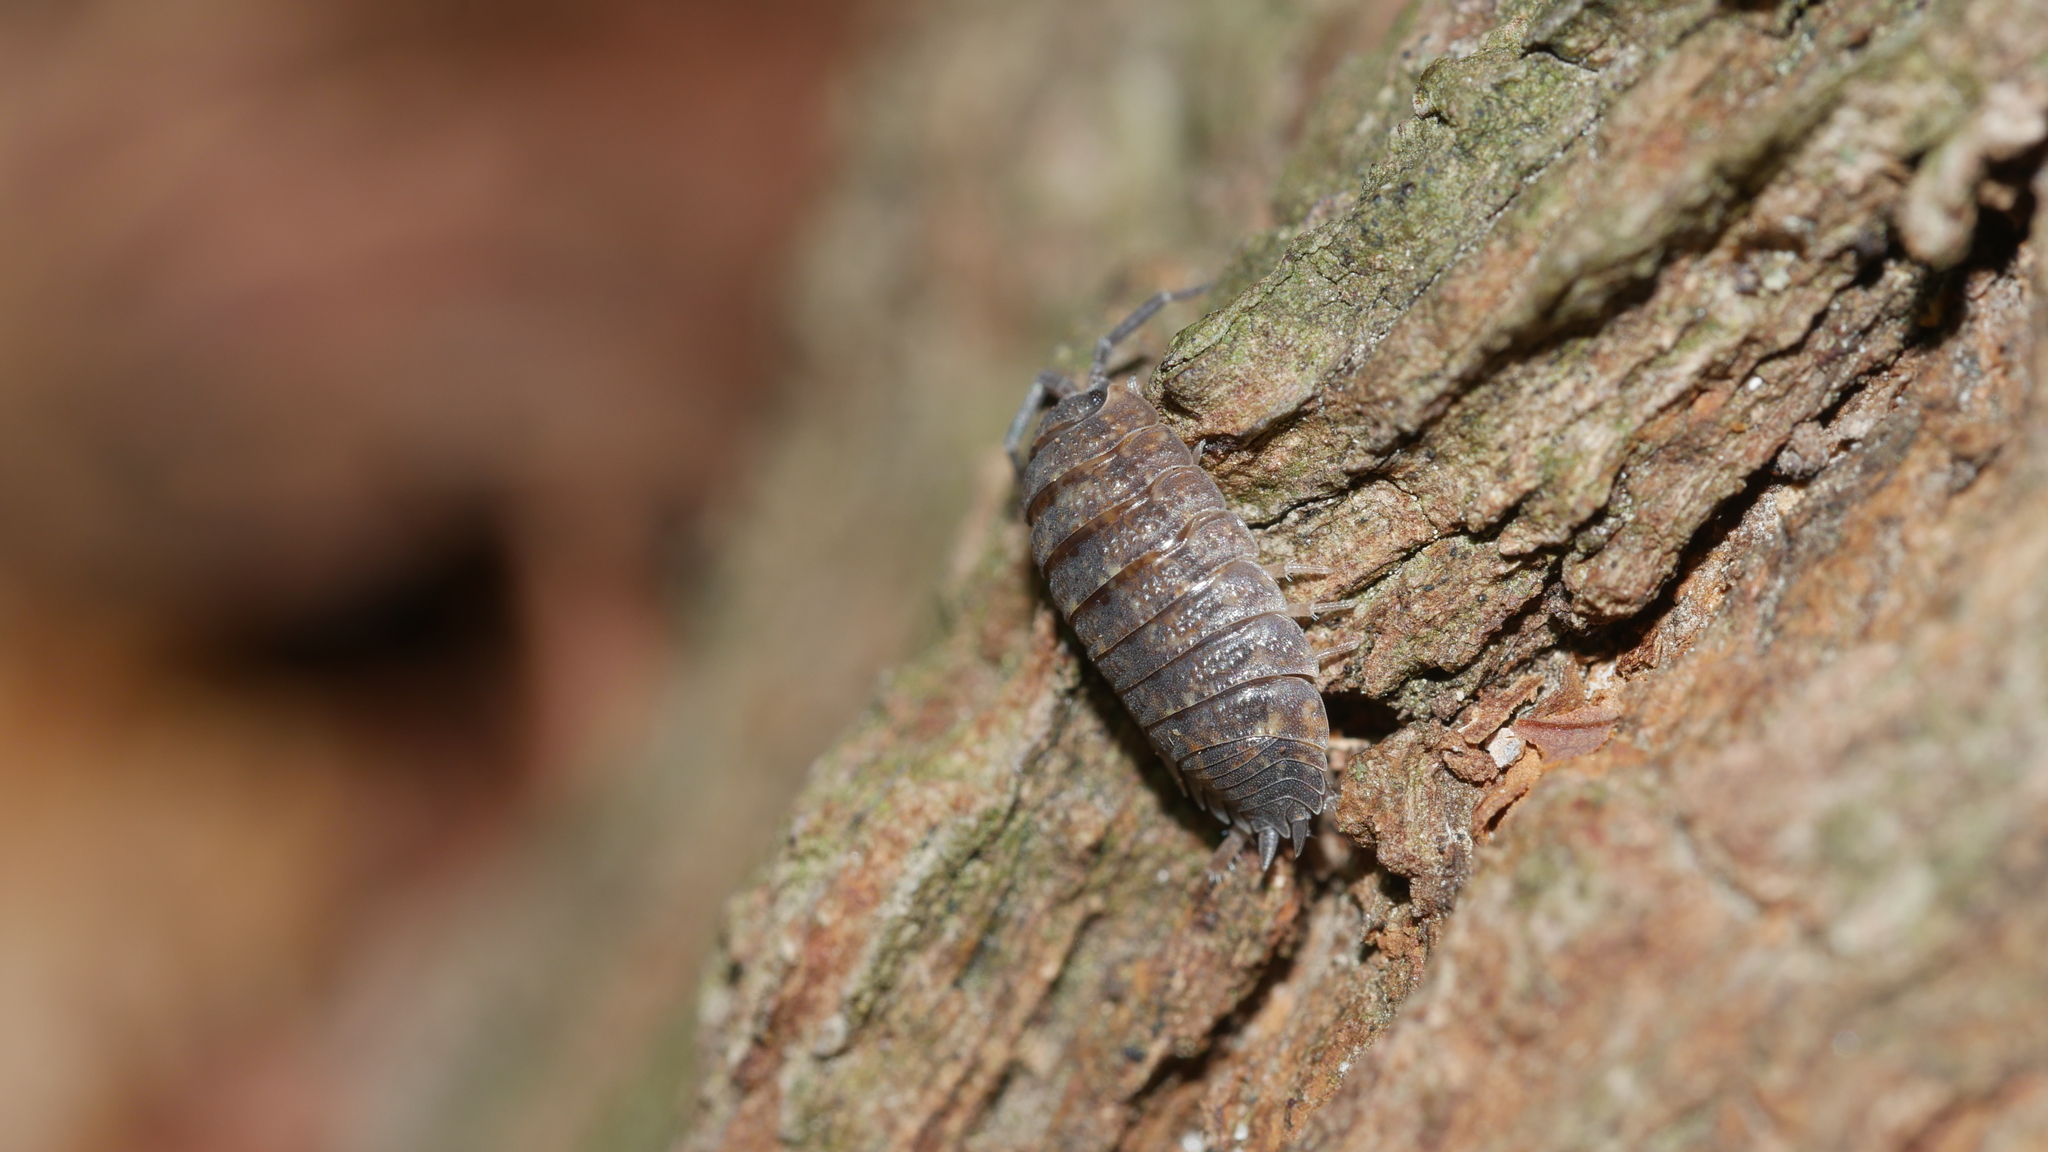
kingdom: Animalia
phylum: Arthropoda
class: Malacostraca
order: Isopoda
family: Porcellionidae
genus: Porcellio
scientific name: Porcellio scaber
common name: Common rough woodlouse
